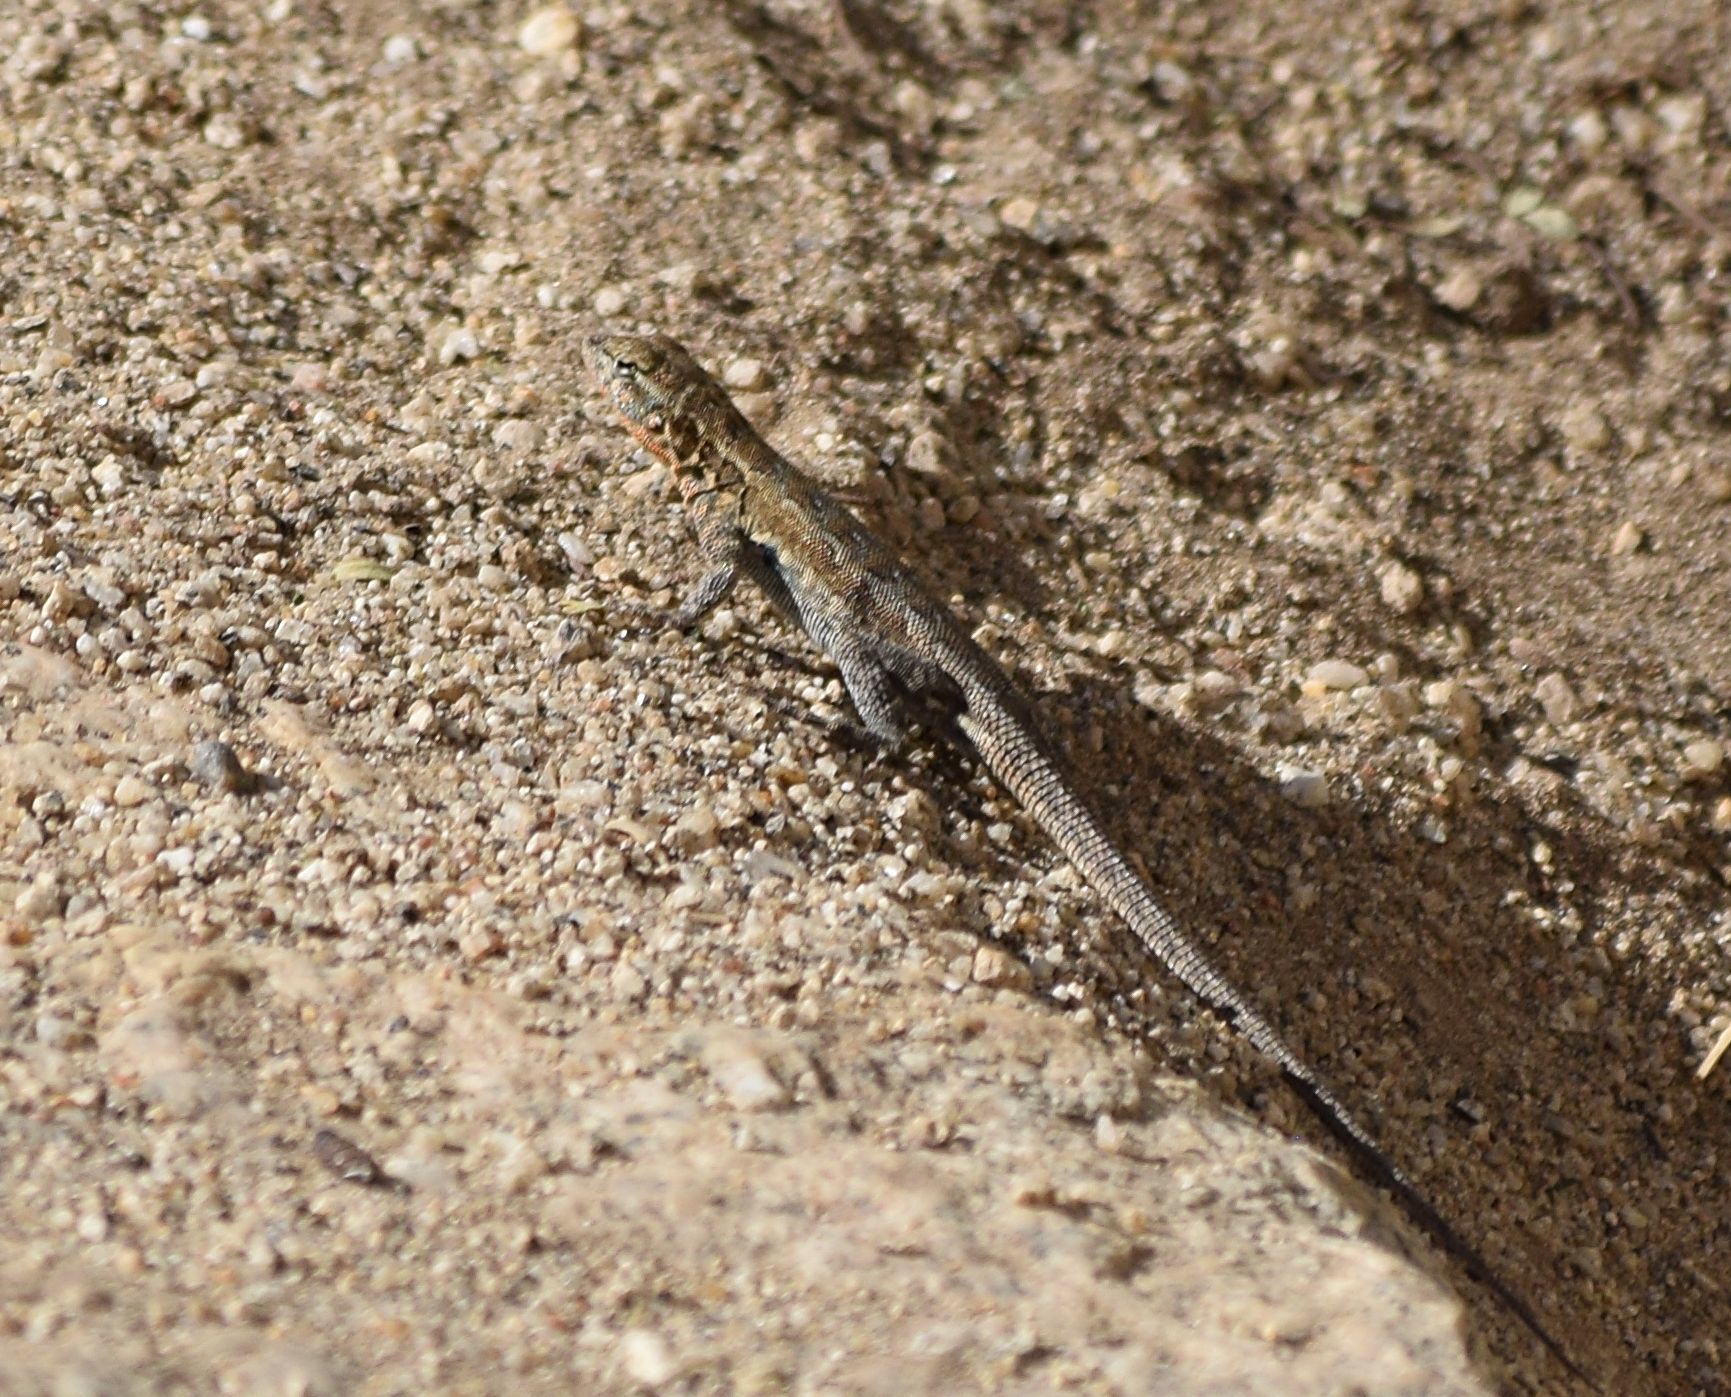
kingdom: Animalia
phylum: Chordata
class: Squamata
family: Phrynosomatidae
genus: Uta
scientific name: Uta stansburiana
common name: Side-blotched lizard
